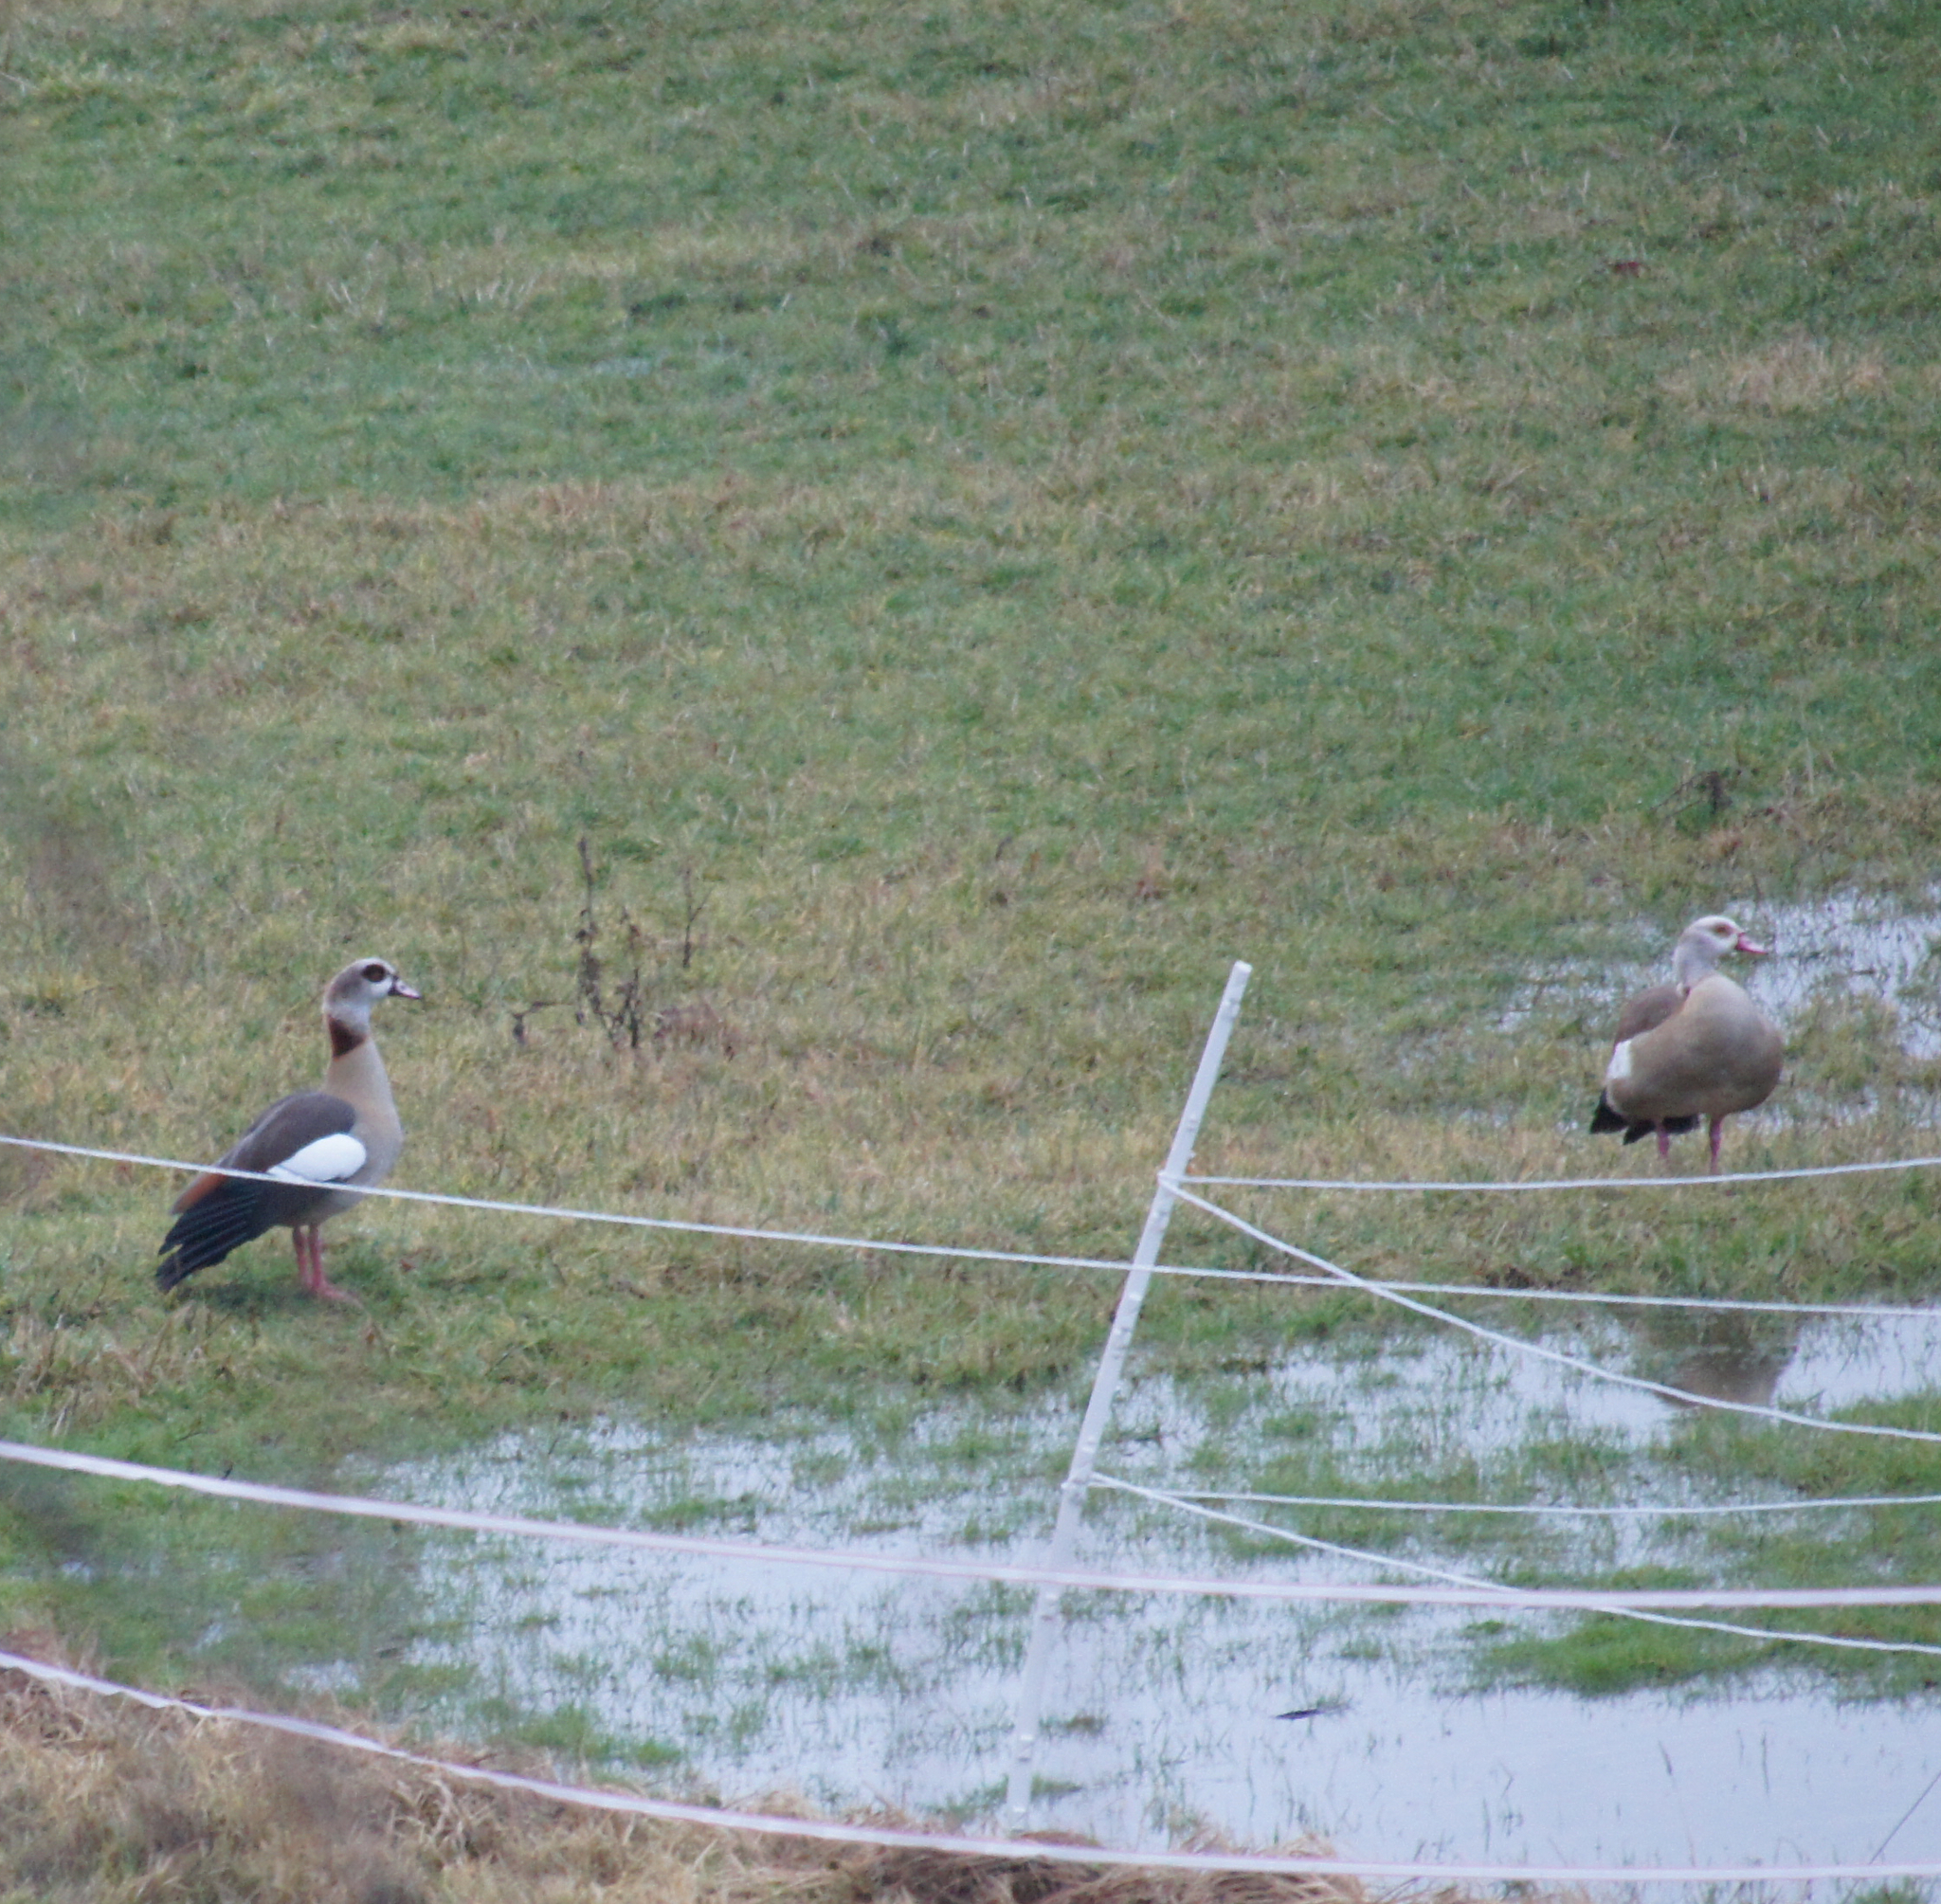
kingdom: Animalia
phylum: Chordata
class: Aves
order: Anseriformes
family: Anatidae
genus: Alopochen
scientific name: Alopochen aegyptiaca
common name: Egyptian goose
